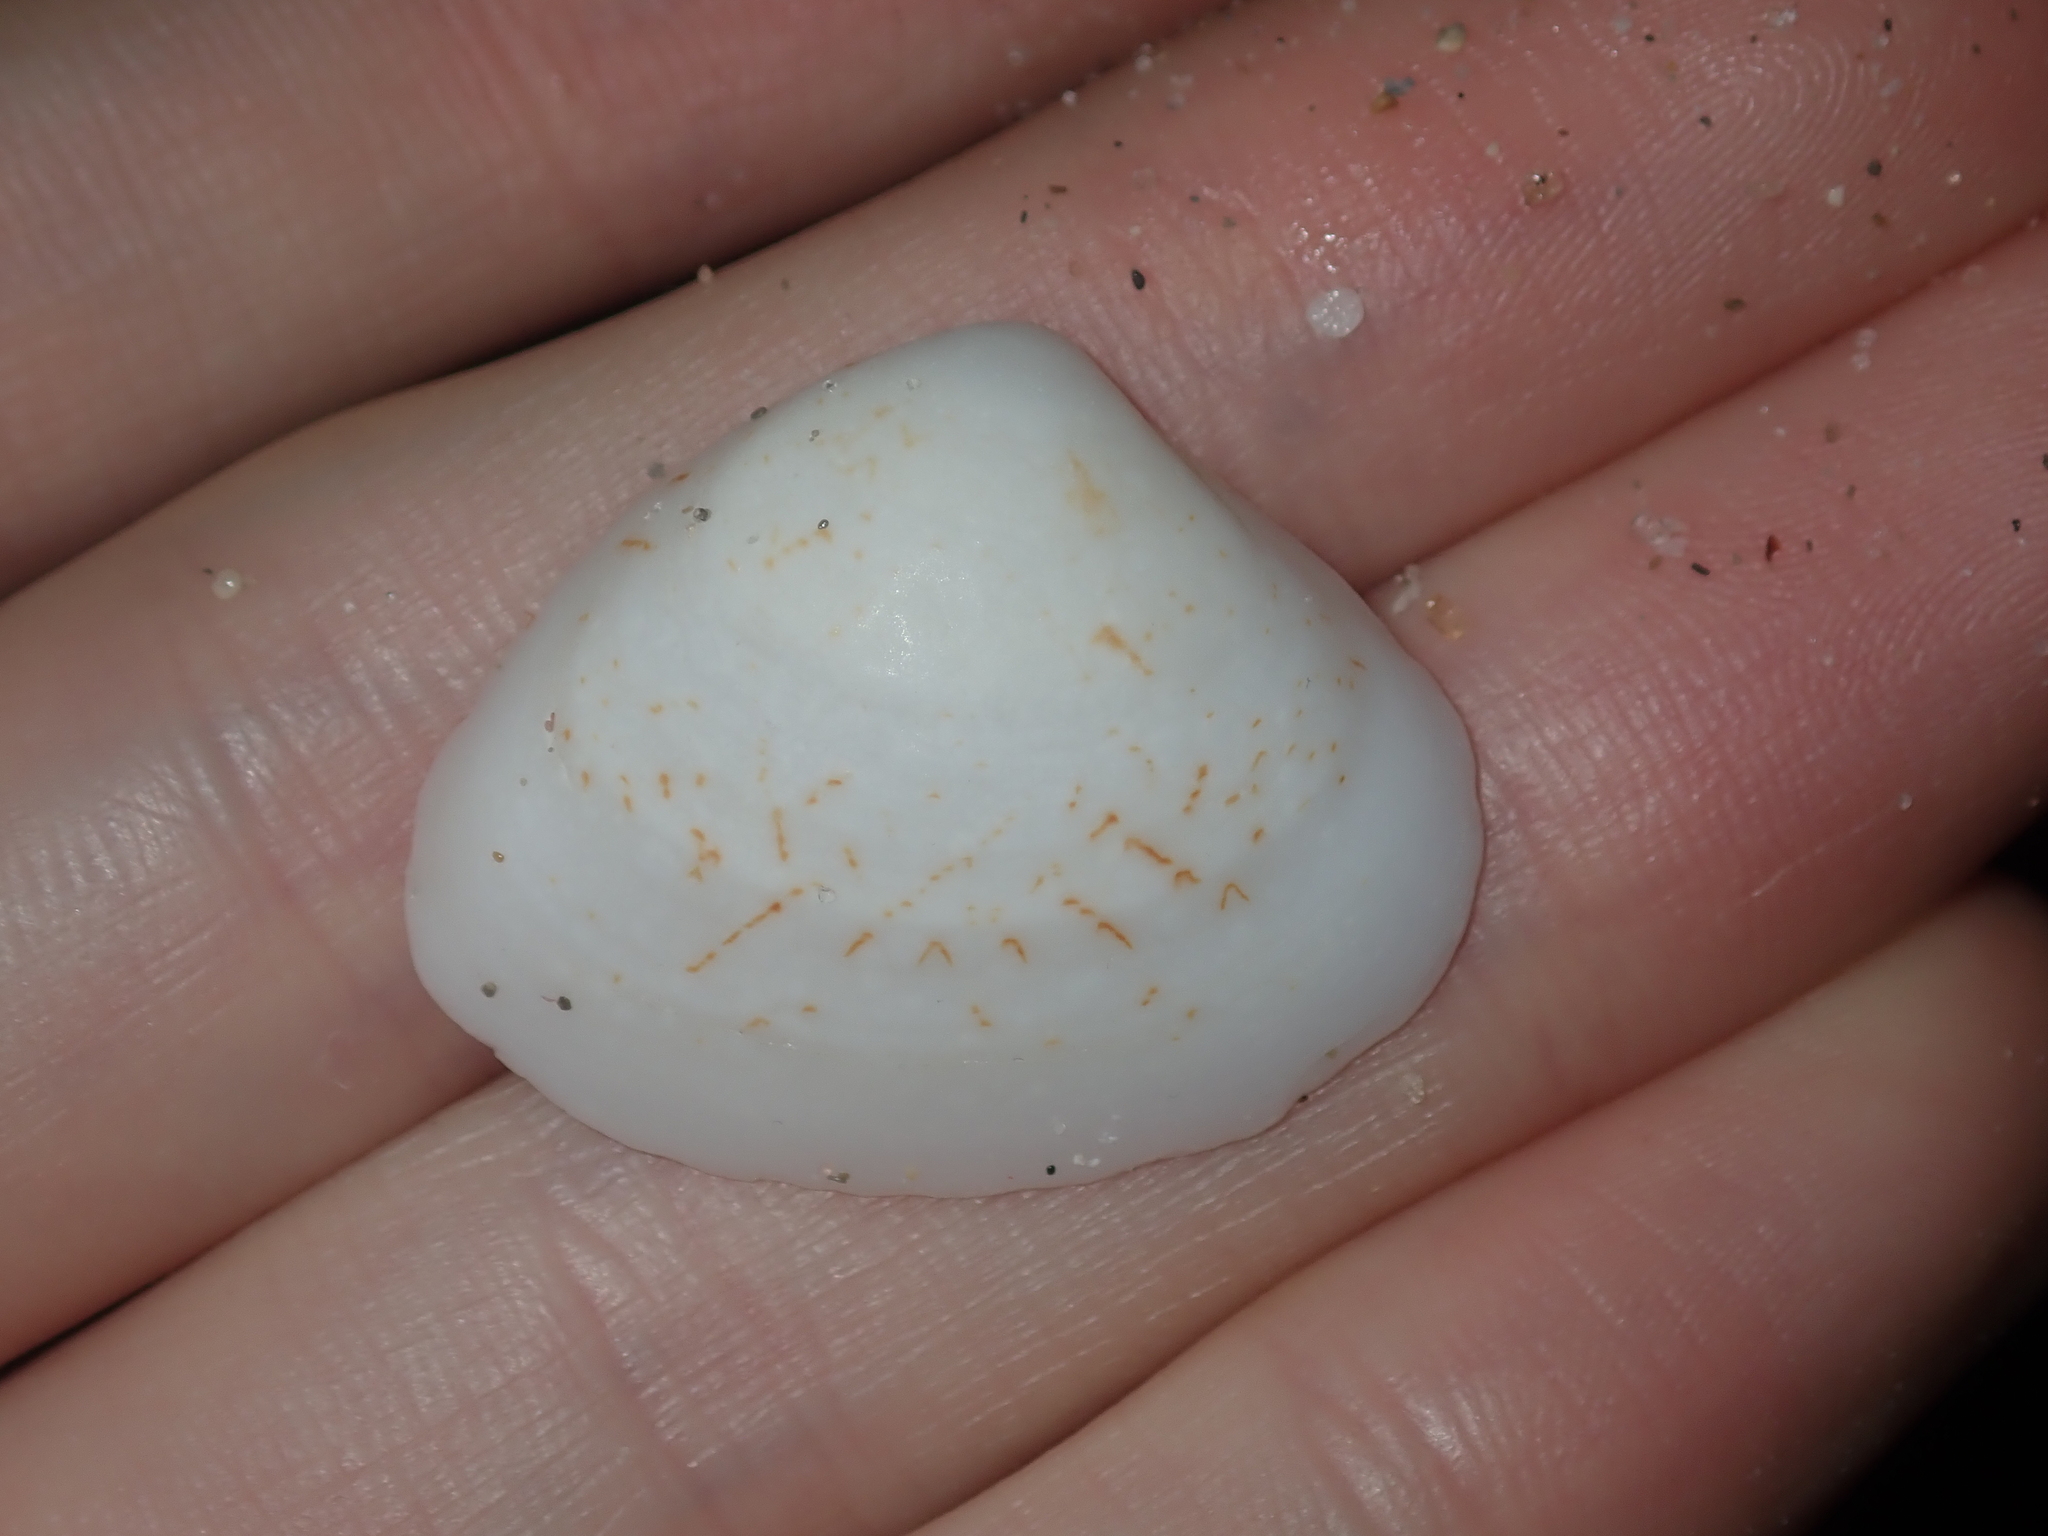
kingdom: Animalia
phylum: Mollusca
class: Bivalvia
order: Venerida
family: Veneridae
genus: Gomphina
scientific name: Gomphina undulosa
